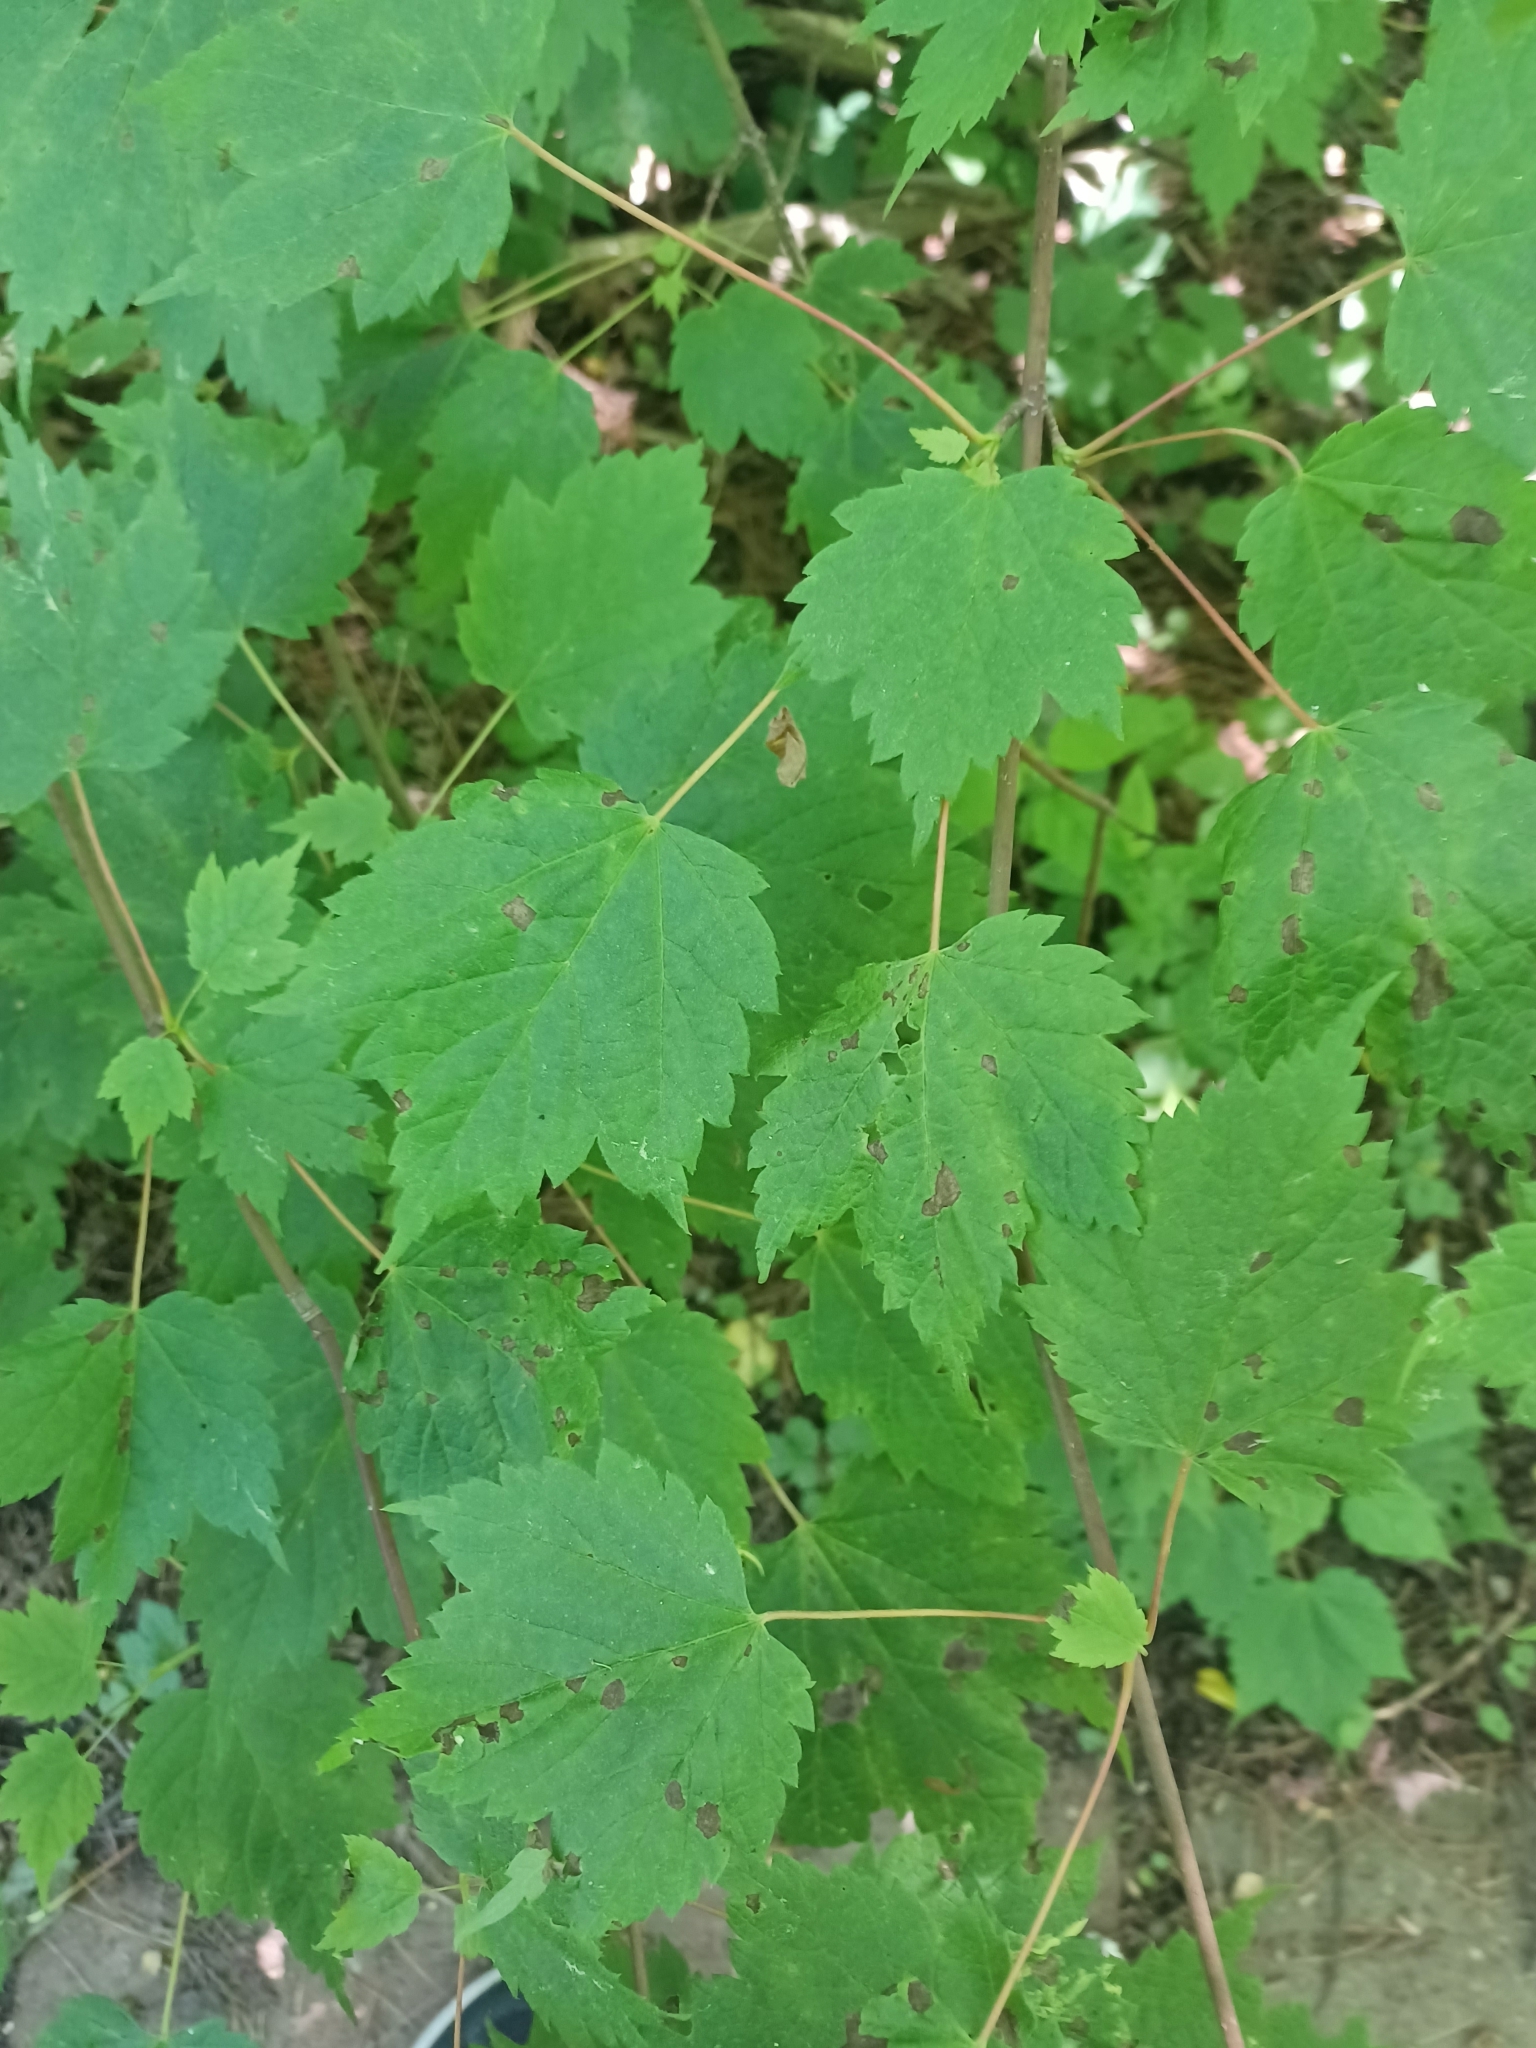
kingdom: Plantae
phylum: Tracheophyta
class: Magnoliopsida
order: Sapindales
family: Sapindaceae
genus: Acer
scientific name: Acer spicatum
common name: Mountain maple
